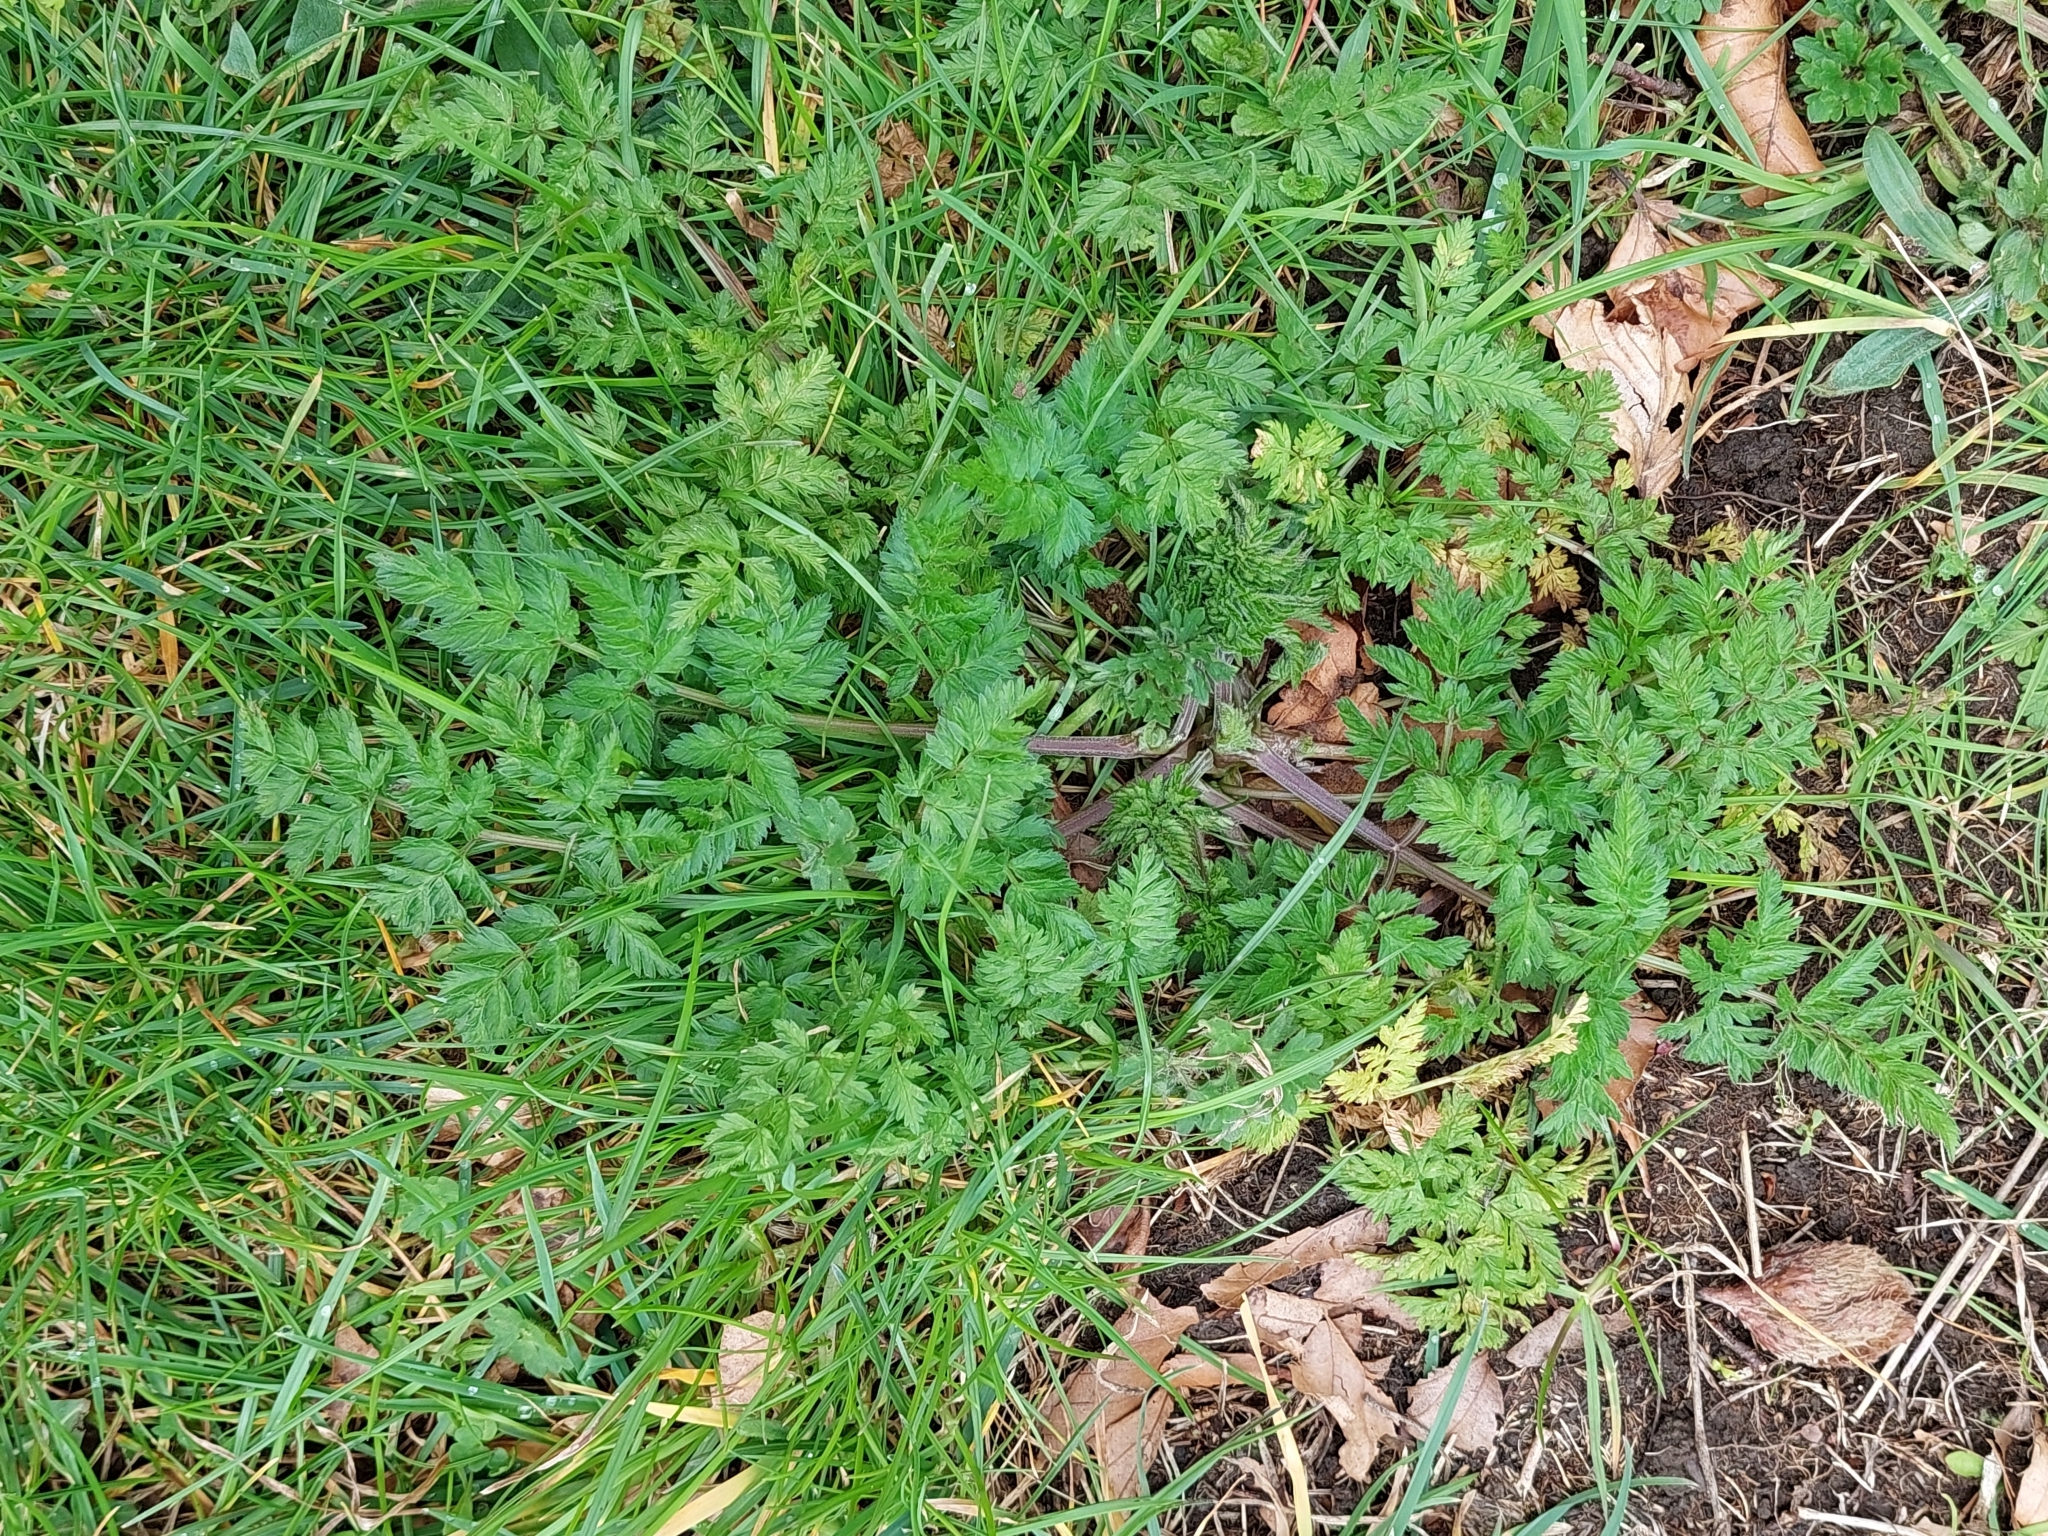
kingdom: Plantae
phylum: Tracheophyta
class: Magnoliopsida
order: Apiales
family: Apiaceae
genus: Anthriscus
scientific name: Anthriscus sylvestris
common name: Cow parsley
